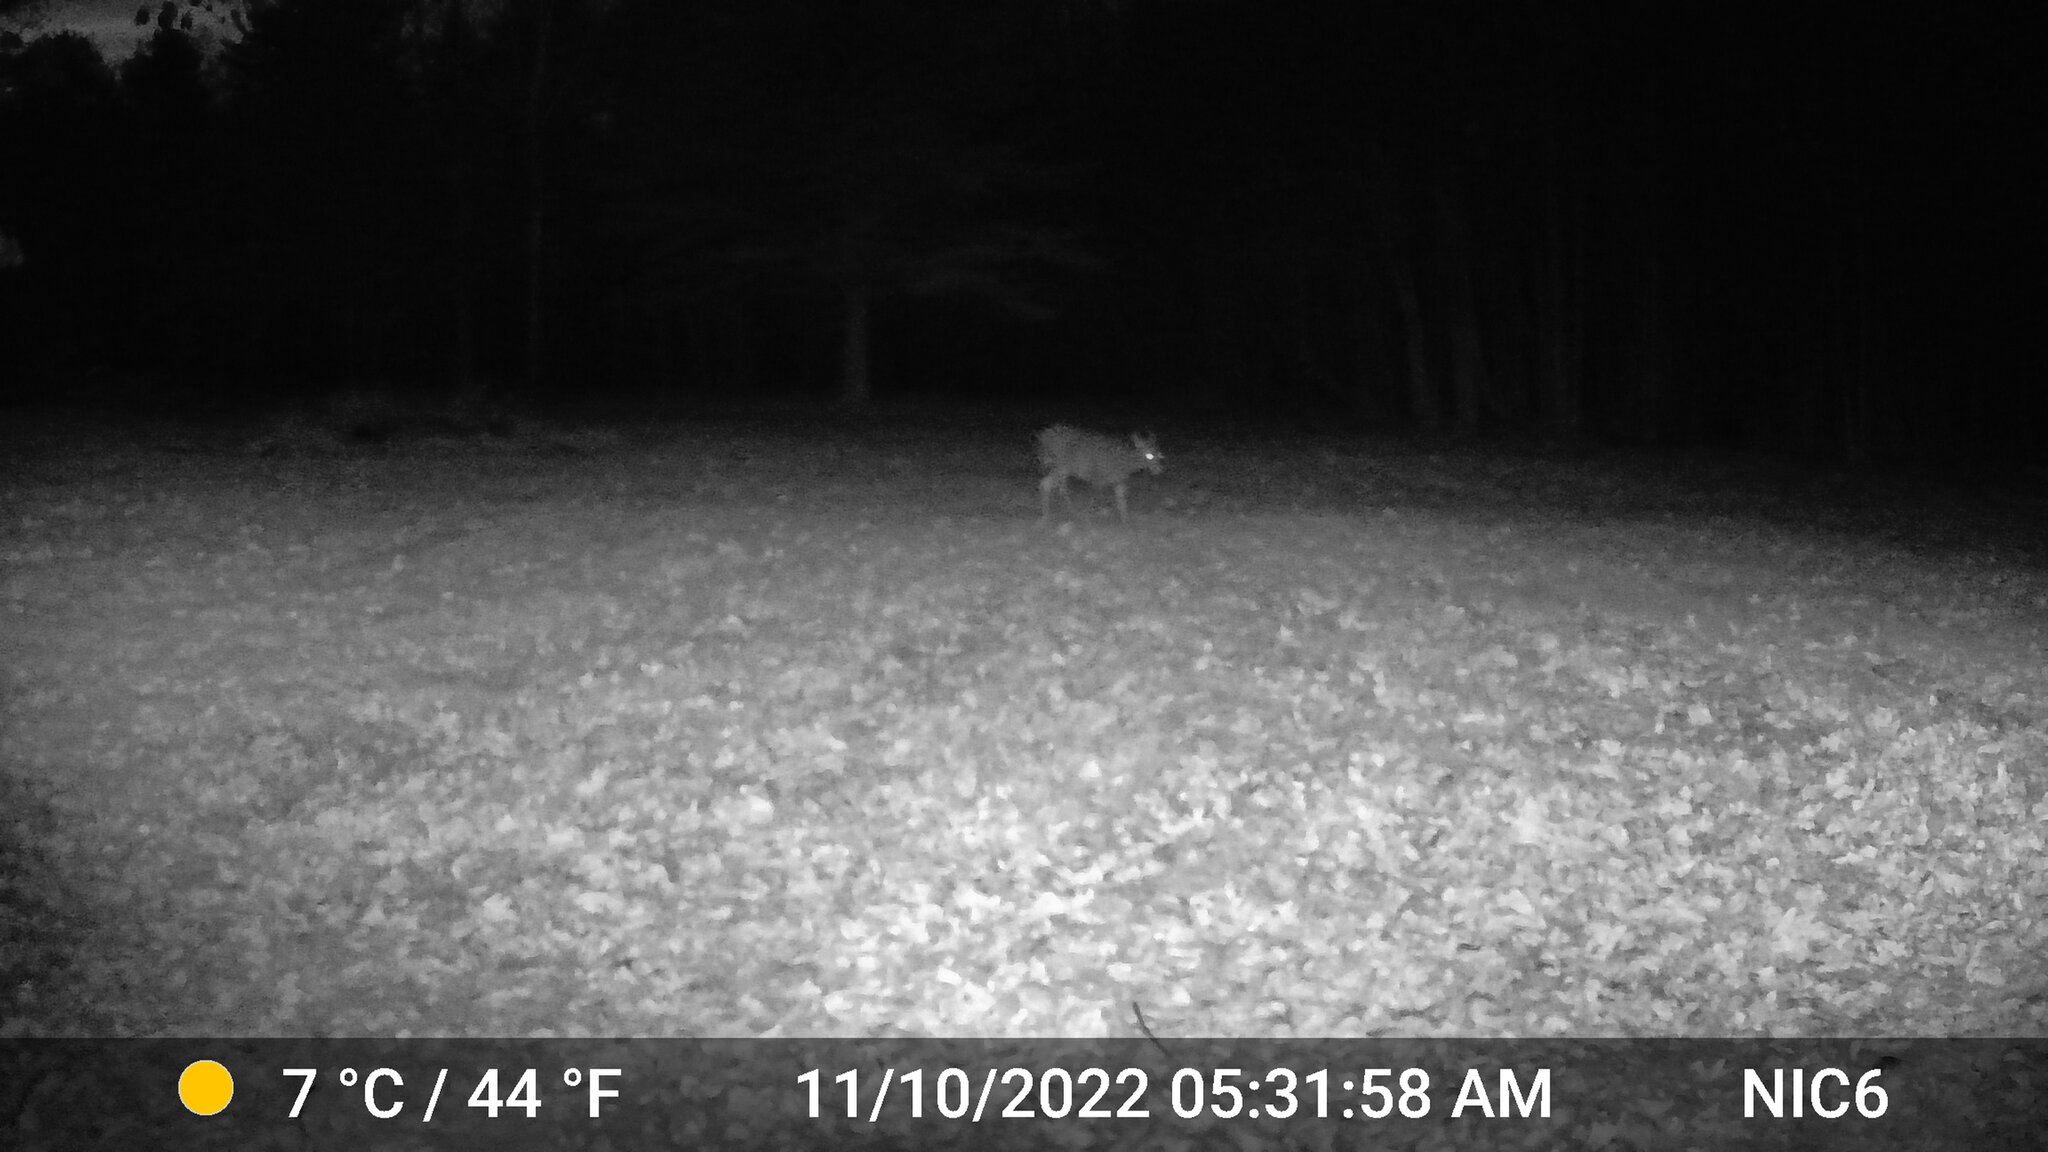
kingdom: Animalia
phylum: Chordata
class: Mammalia
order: Artiodactyla
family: Cervidae
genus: Odocoileus
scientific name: Odocoileus virginianus
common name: White-tailed deer
